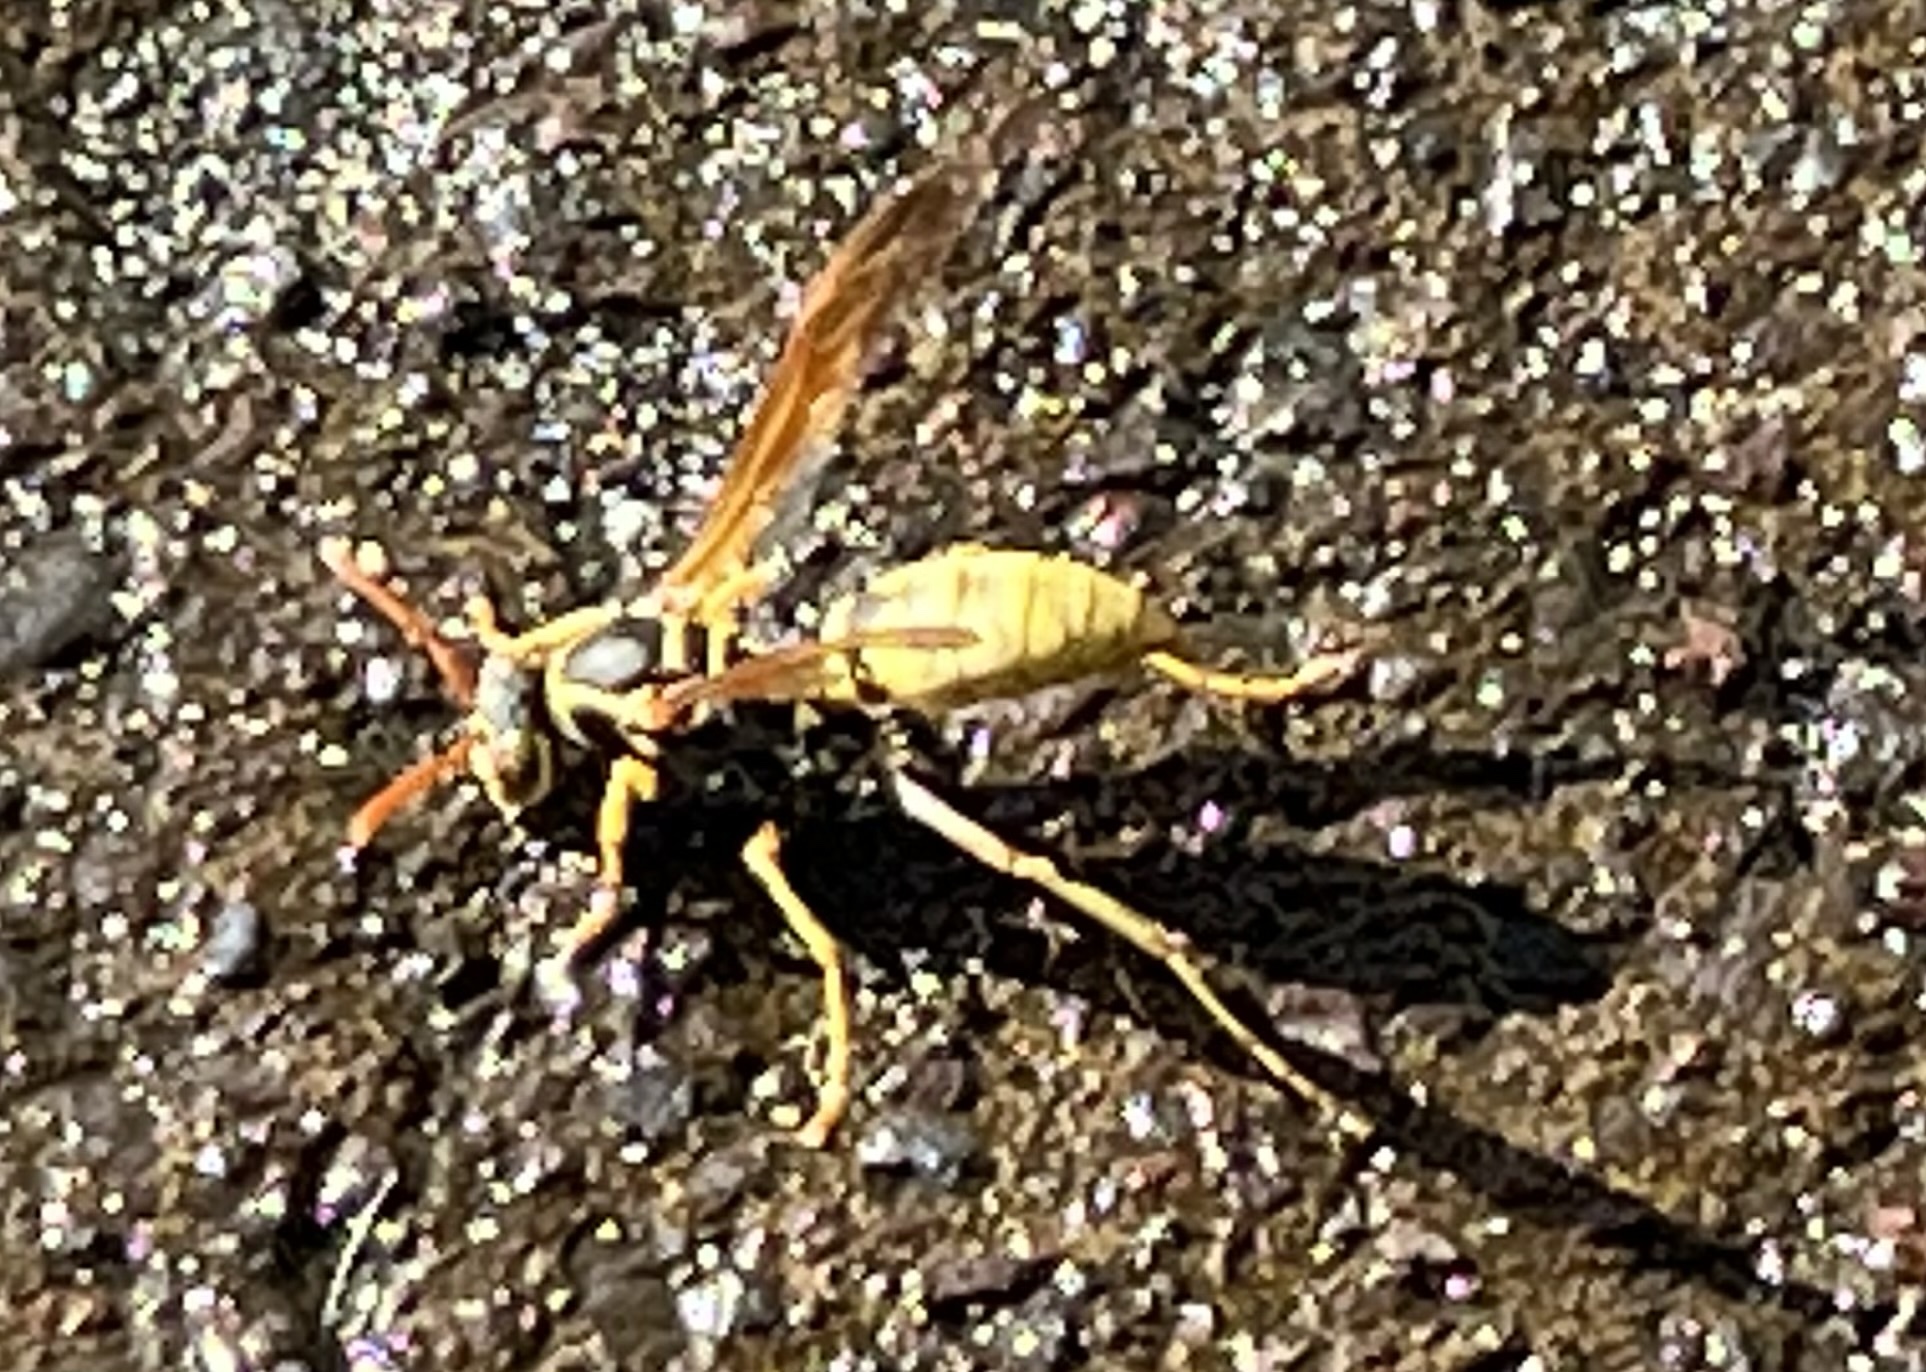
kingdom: Animalia
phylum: Arthropoda
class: Insecta
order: Hymenoptera
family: Eumenidae
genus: Polistes
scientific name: Polistes aurifer
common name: Paper wasp
